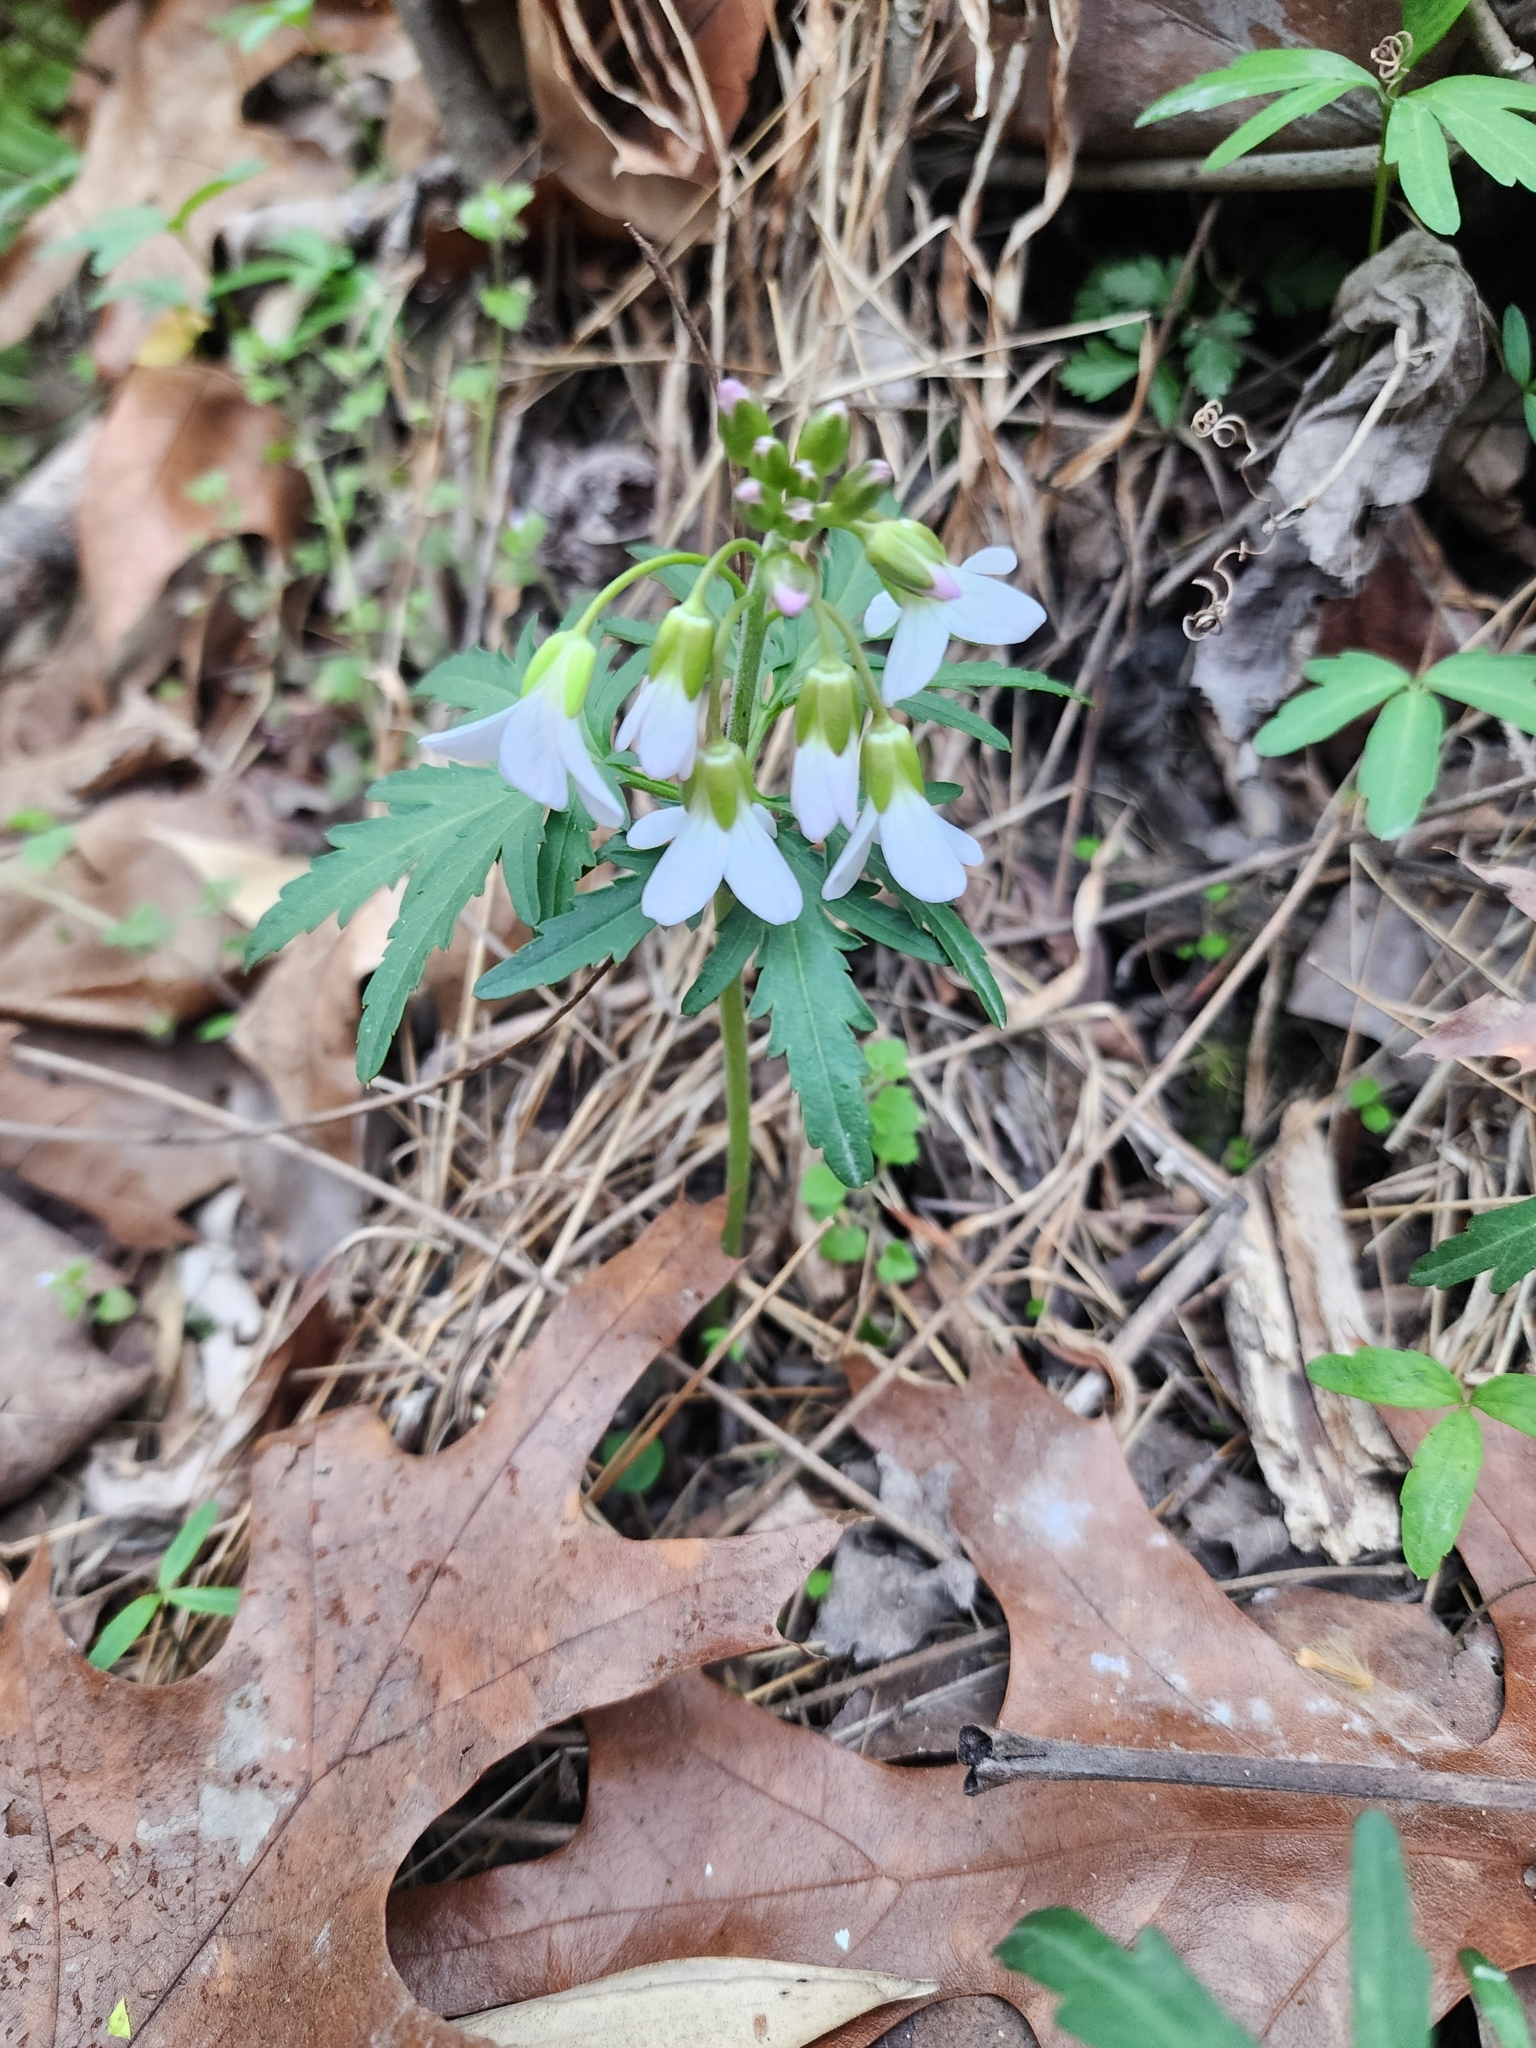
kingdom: Plantae
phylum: Tracheophyta
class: Magnoliopsida
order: Brassicales
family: Brassicaceae
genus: Cardamine
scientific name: Cardamine concatenata
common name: Cut-leaf toothcup
